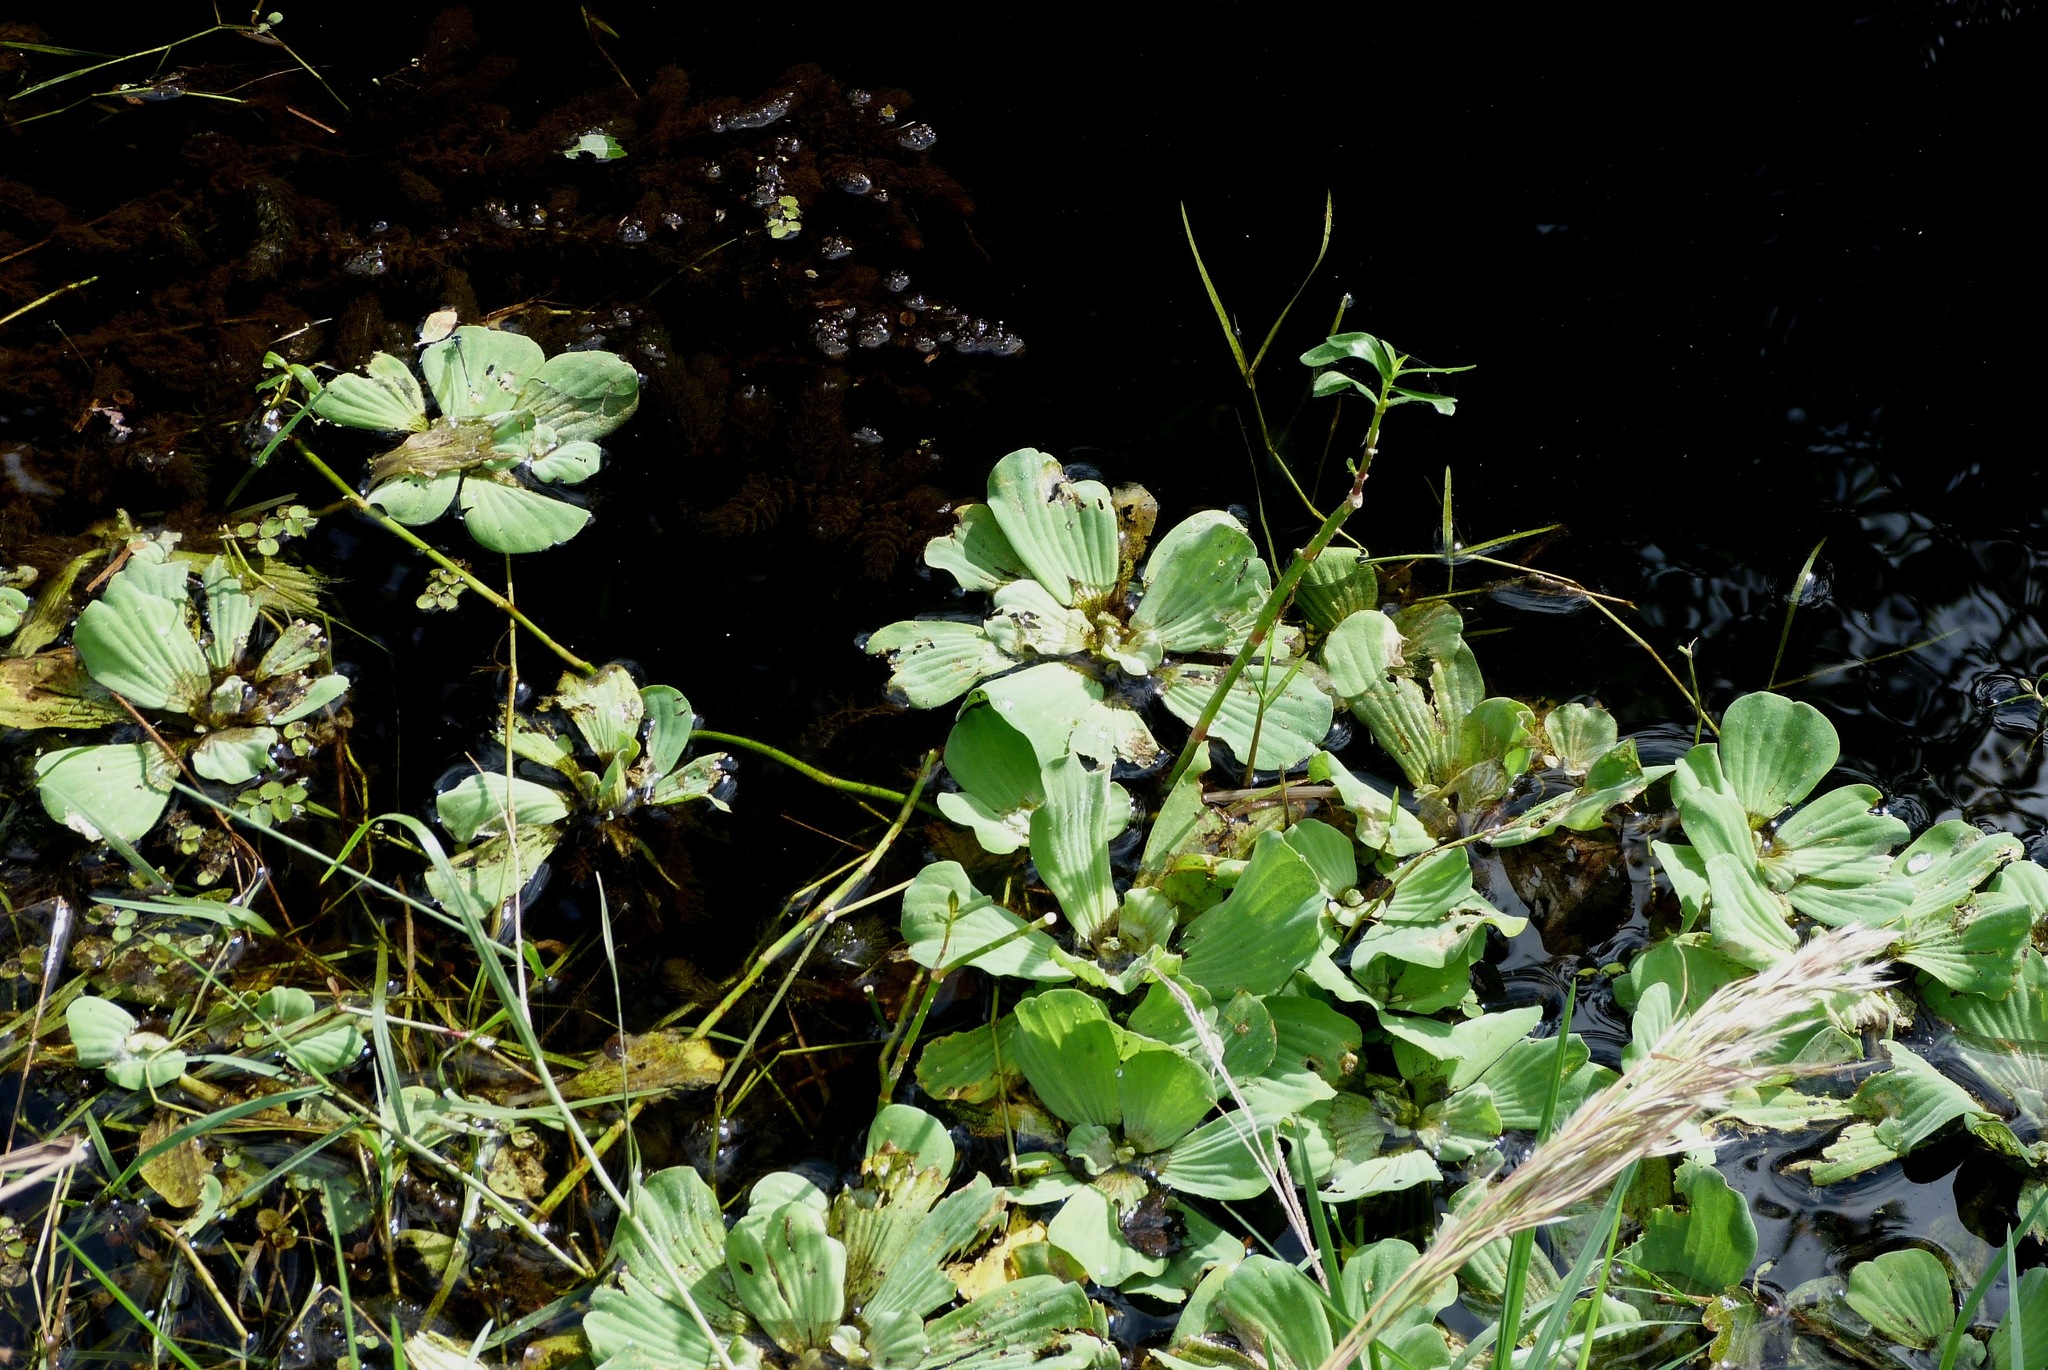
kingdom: Plantae
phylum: Tracheophyta
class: Liliopsida
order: Alismatales
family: Araceae
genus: Pistia
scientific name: Pistia stratiotes
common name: Water lettuce
